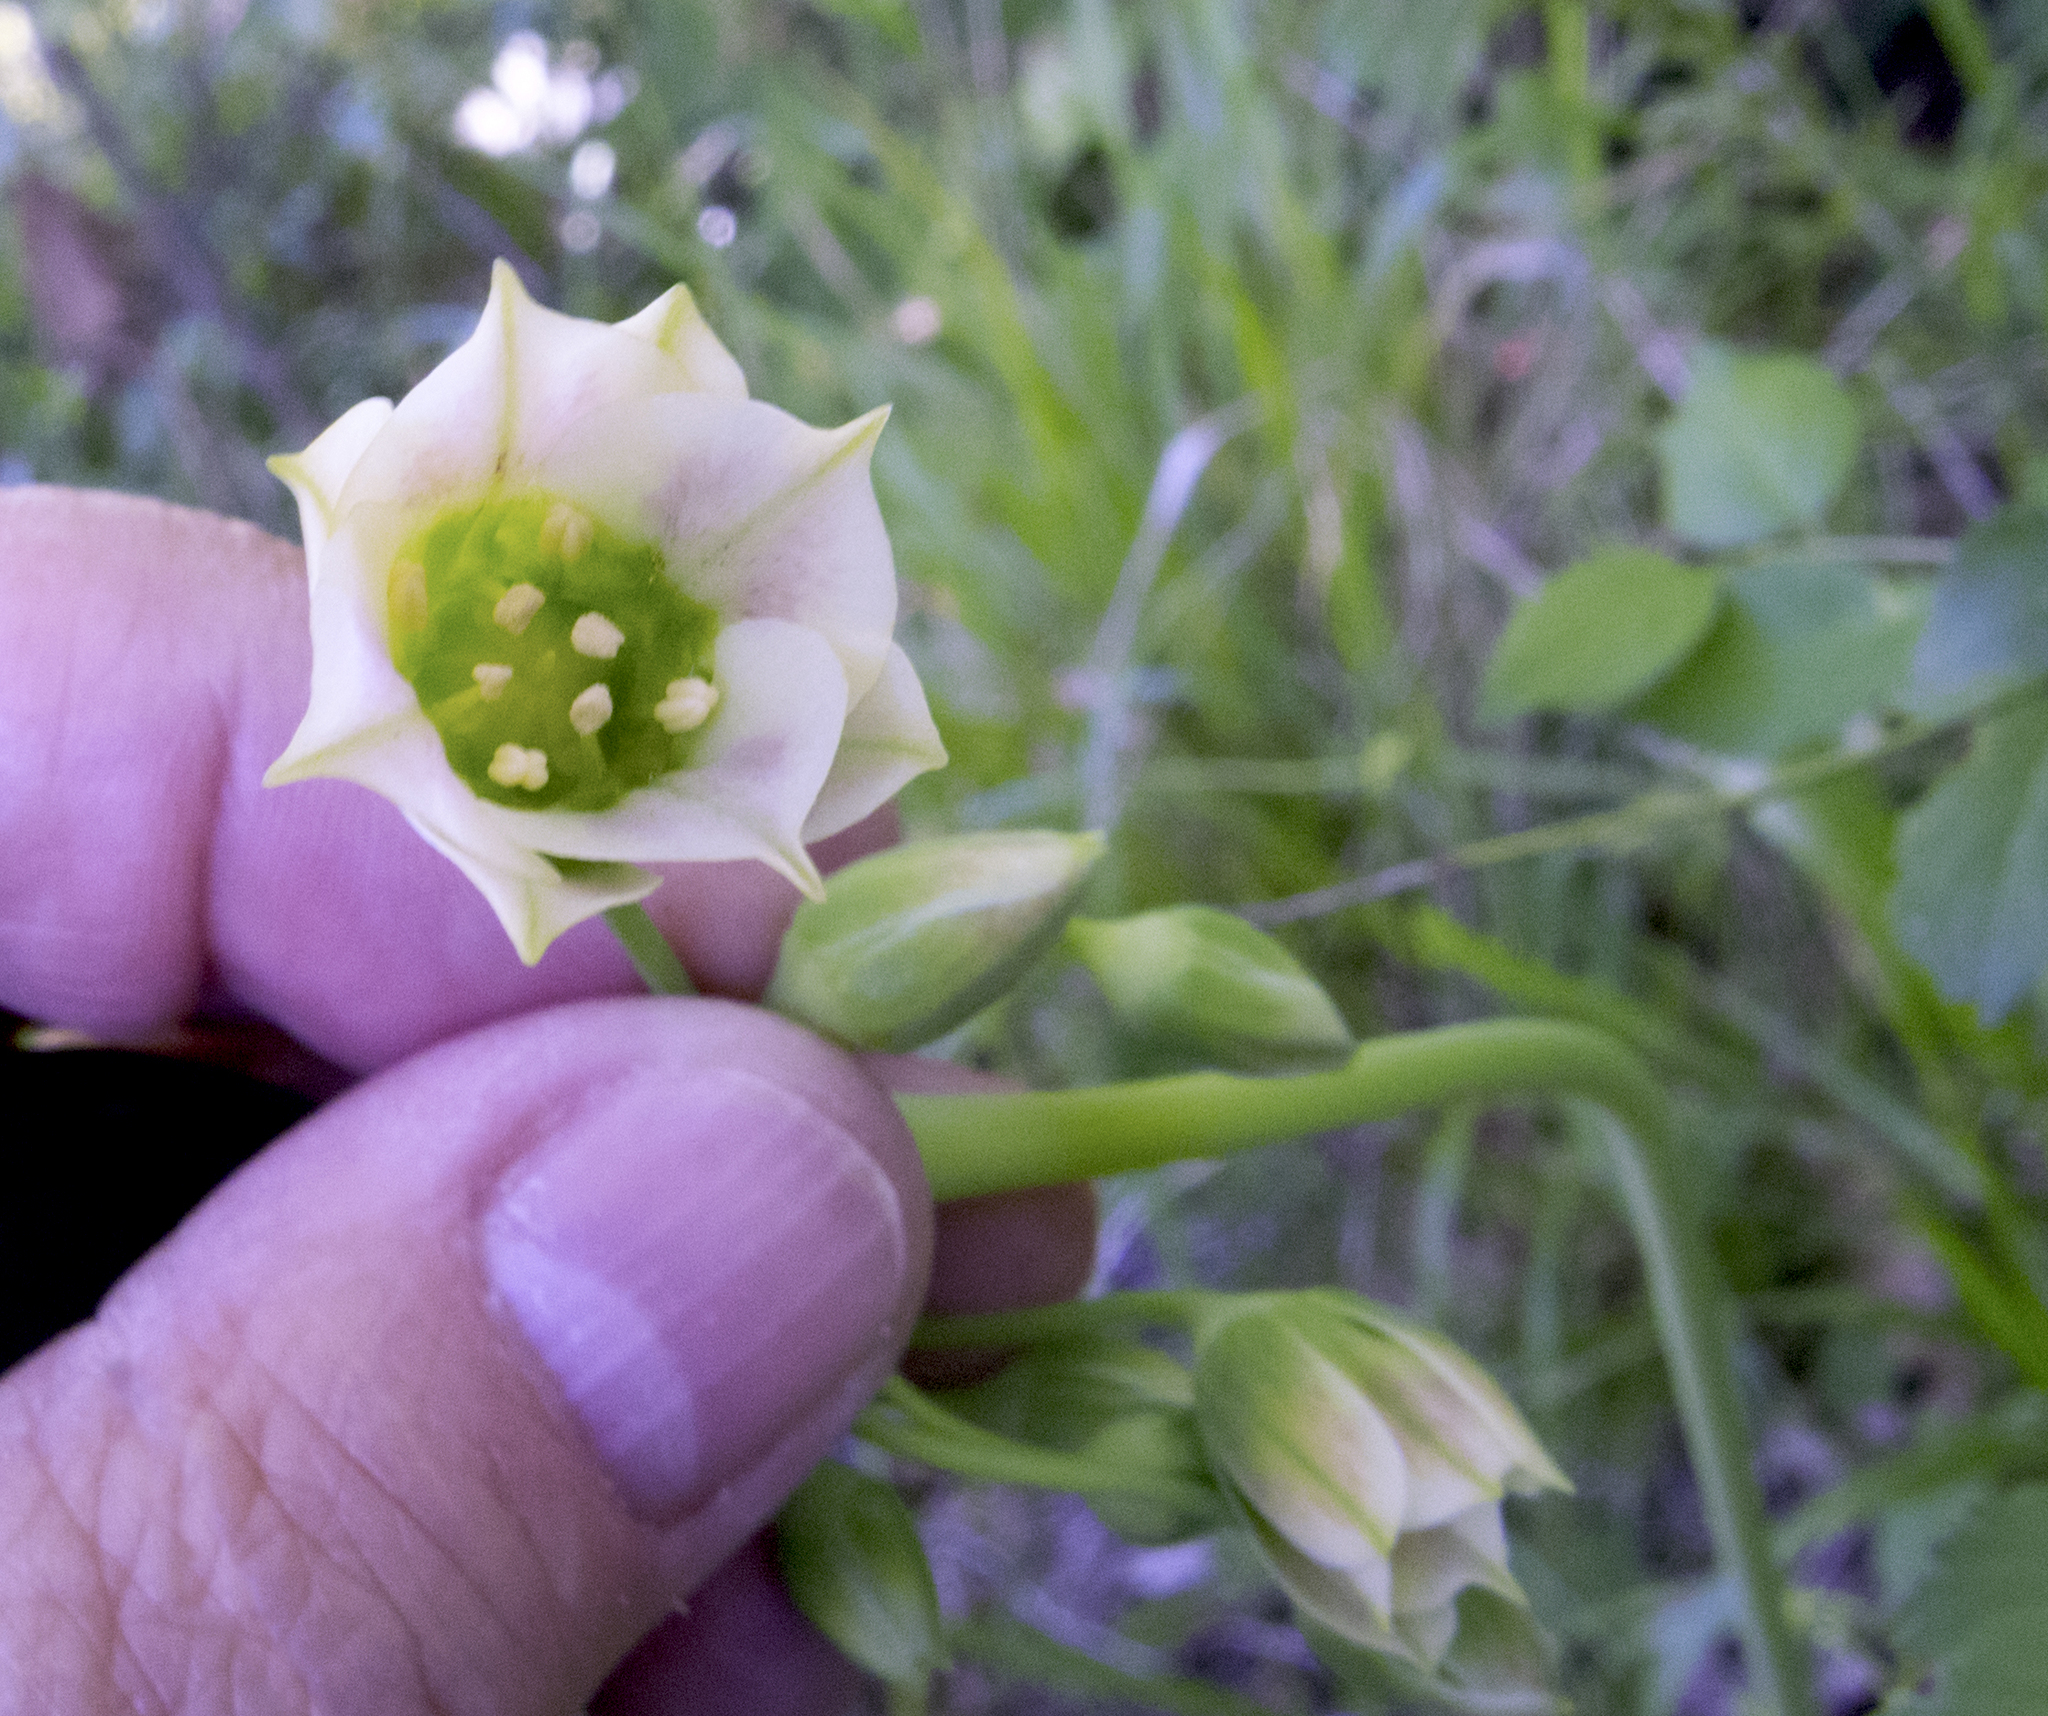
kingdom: Plantae
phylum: Tracheophyta
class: Liliopsida
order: Asparagales
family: Amaryllidaceae
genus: Allium
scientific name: Allium siculum
